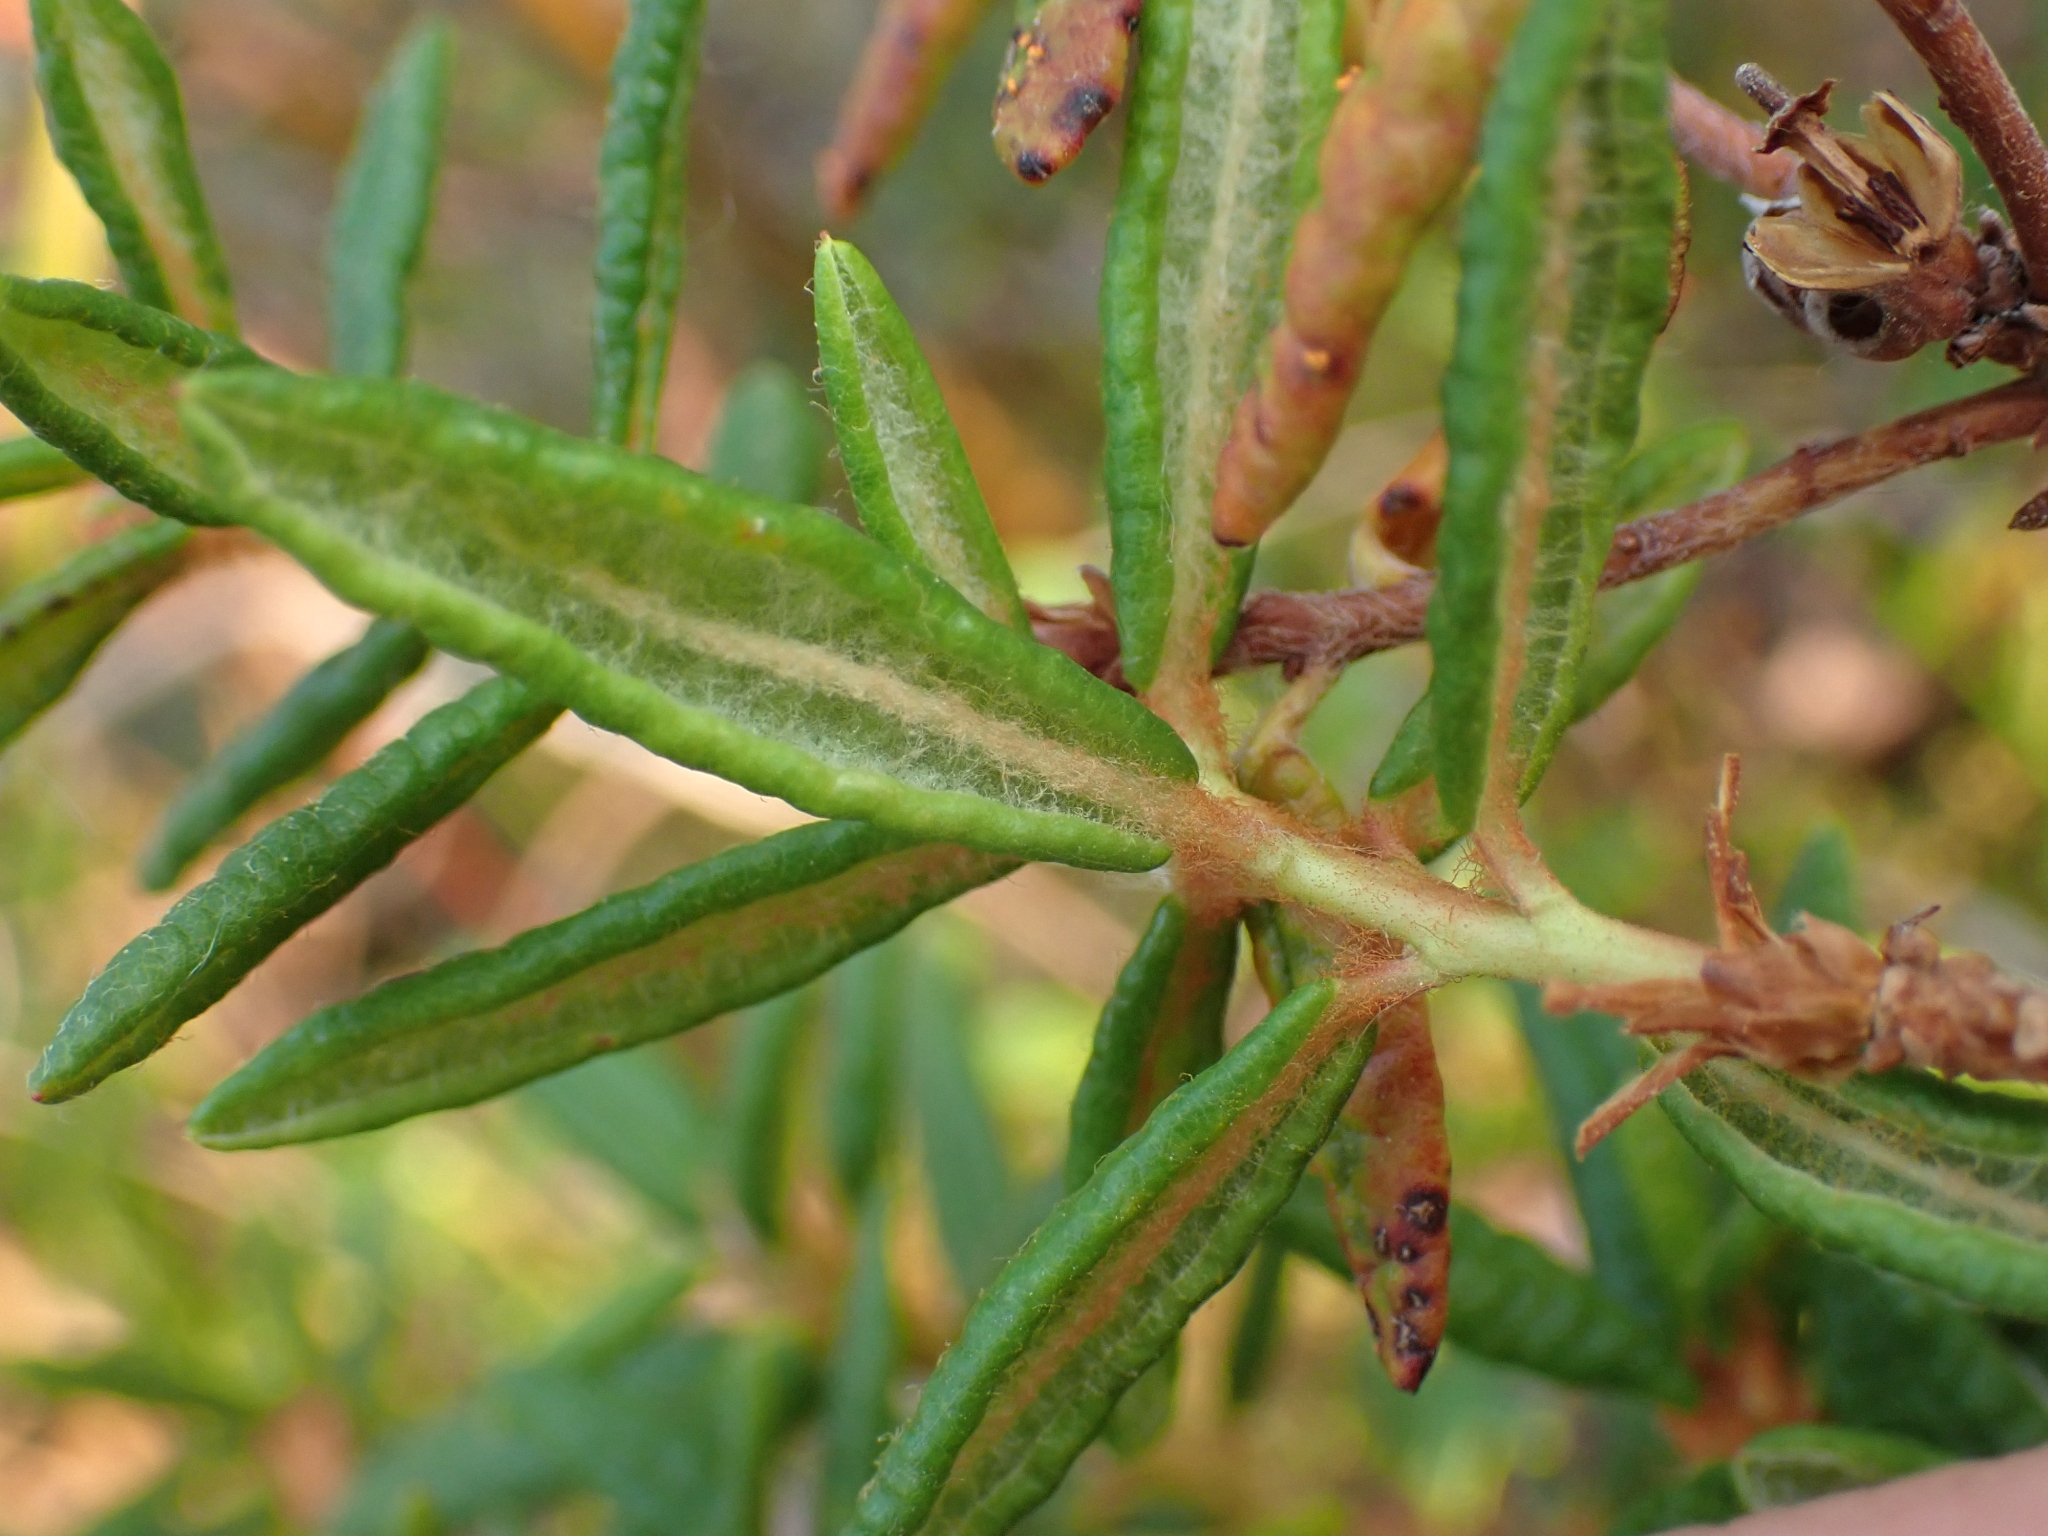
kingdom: Plantae
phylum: Tracheophyta
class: Magnoliopsida
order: Ericales
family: Ericaceae
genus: Rhododendron
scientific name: Rhododendron groenlandicum
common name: Bog labrador tea
